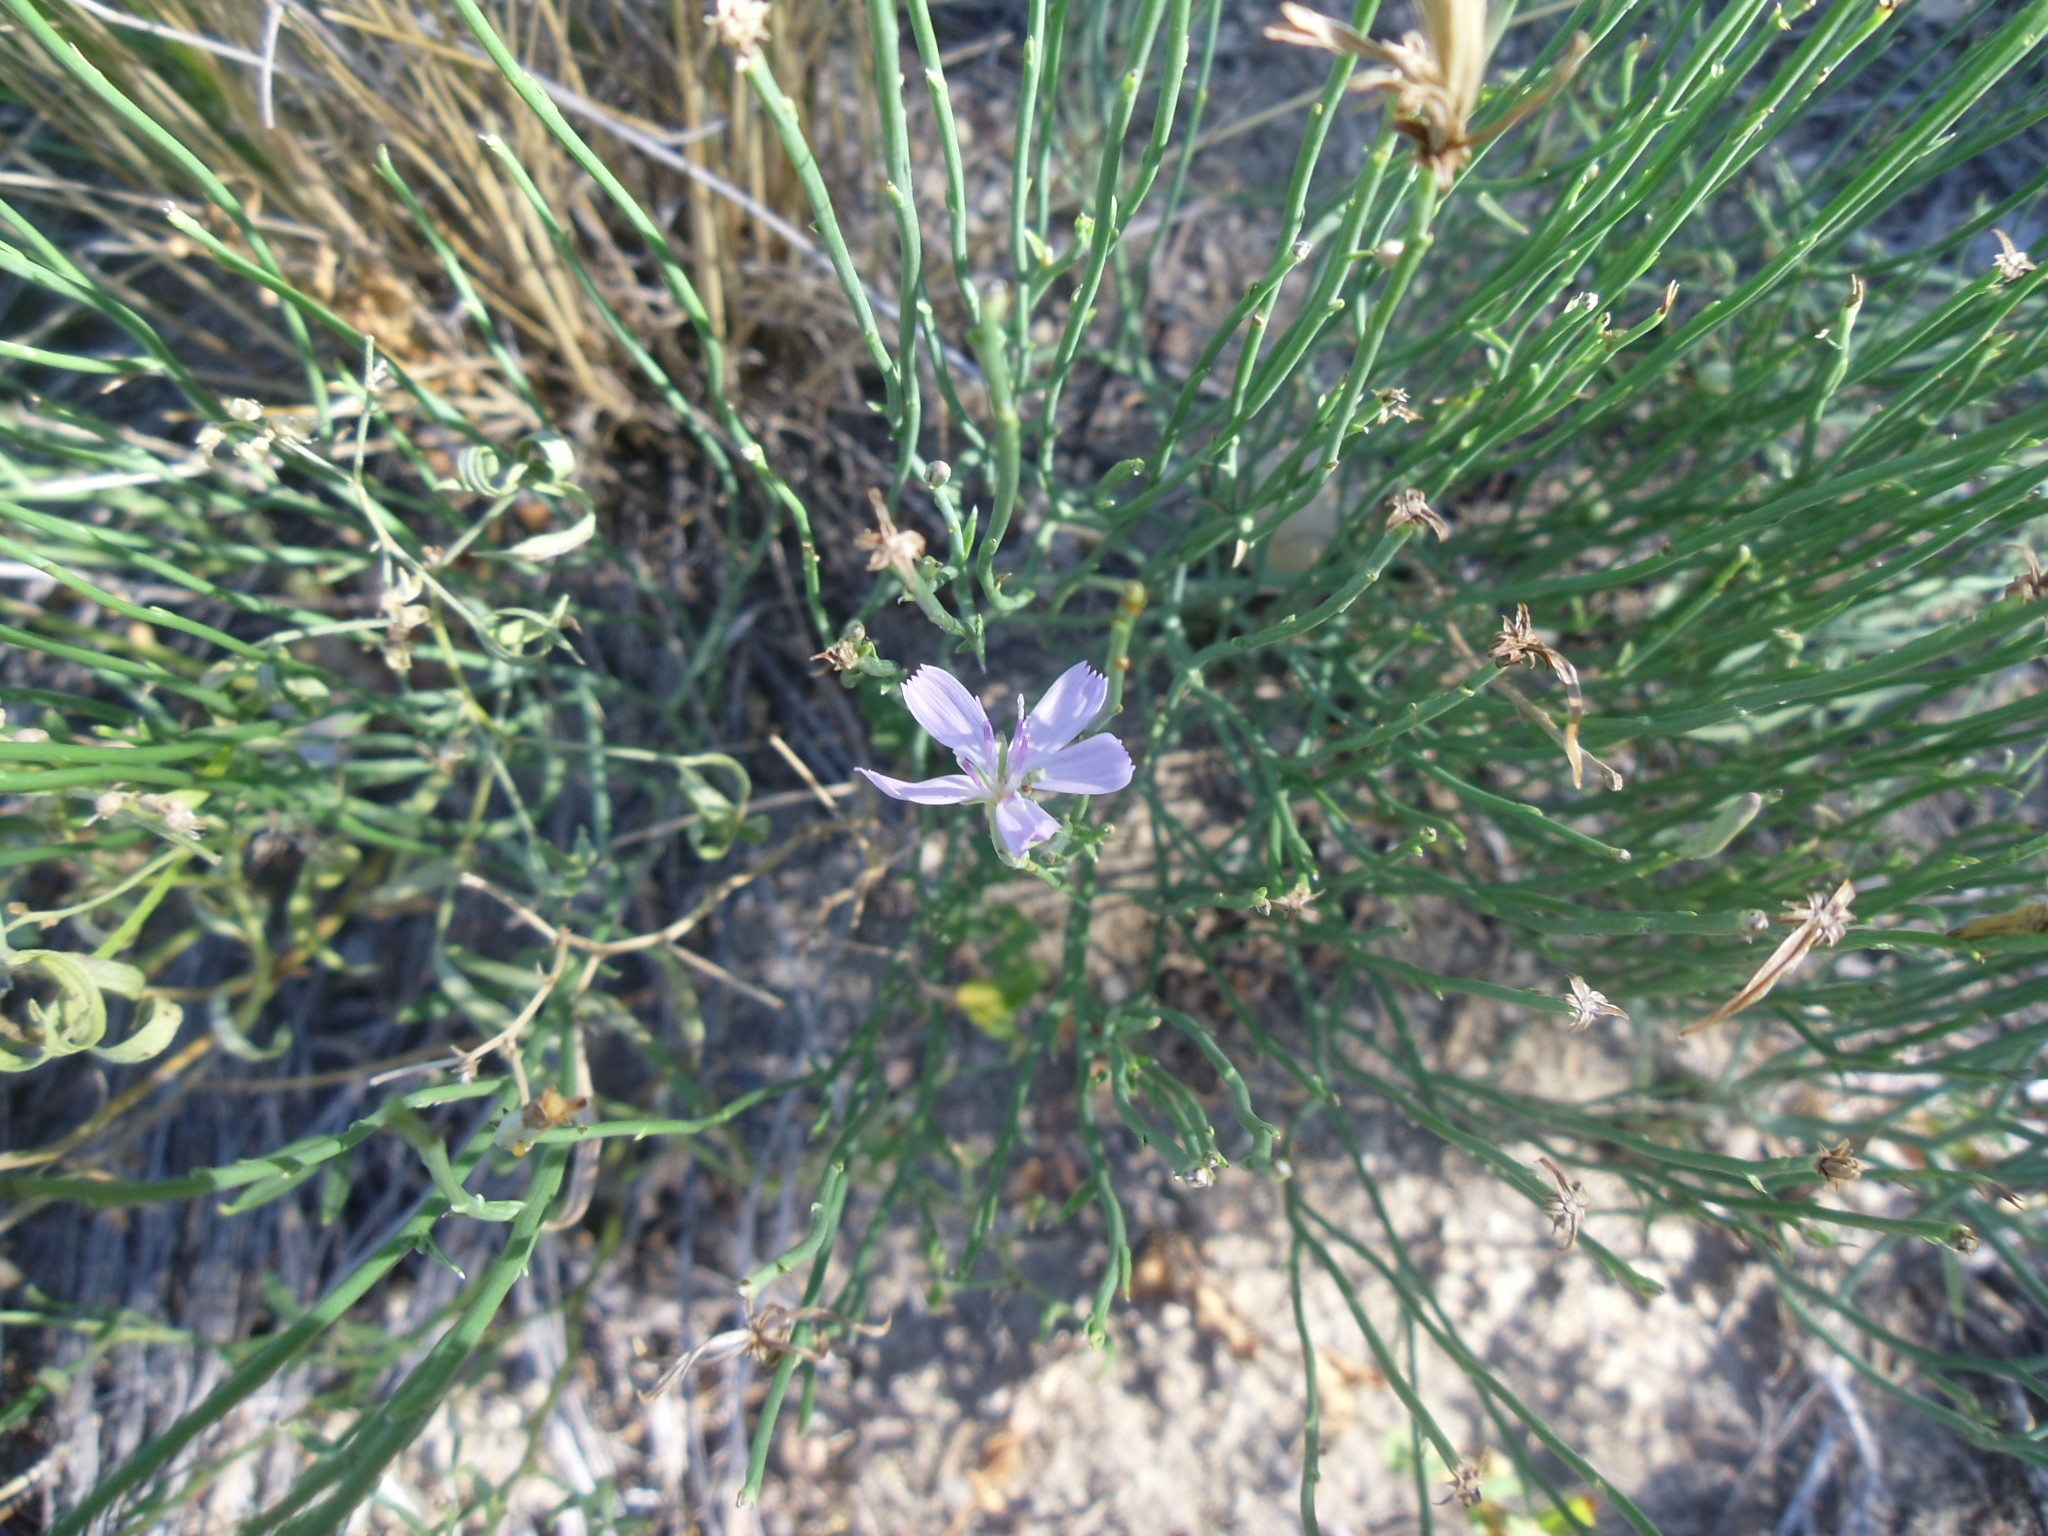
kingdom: Plantae
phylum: Tracheophyta
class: Magnoliopsida
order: Asterales
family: Asteraceae
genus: Lygodesmia
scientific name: Lygodesmia juncea
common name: Common skeletonweed
